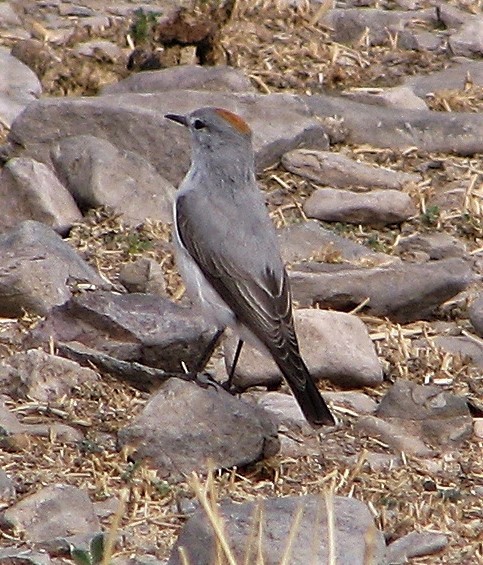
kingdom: Animalia
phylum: Chordata
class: Aves
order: Passeriformes
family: Tyrannidae
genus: Muscisaxicola
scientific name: Muscisaxicola rufivertex
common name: Rufous-naped ground tyrant
